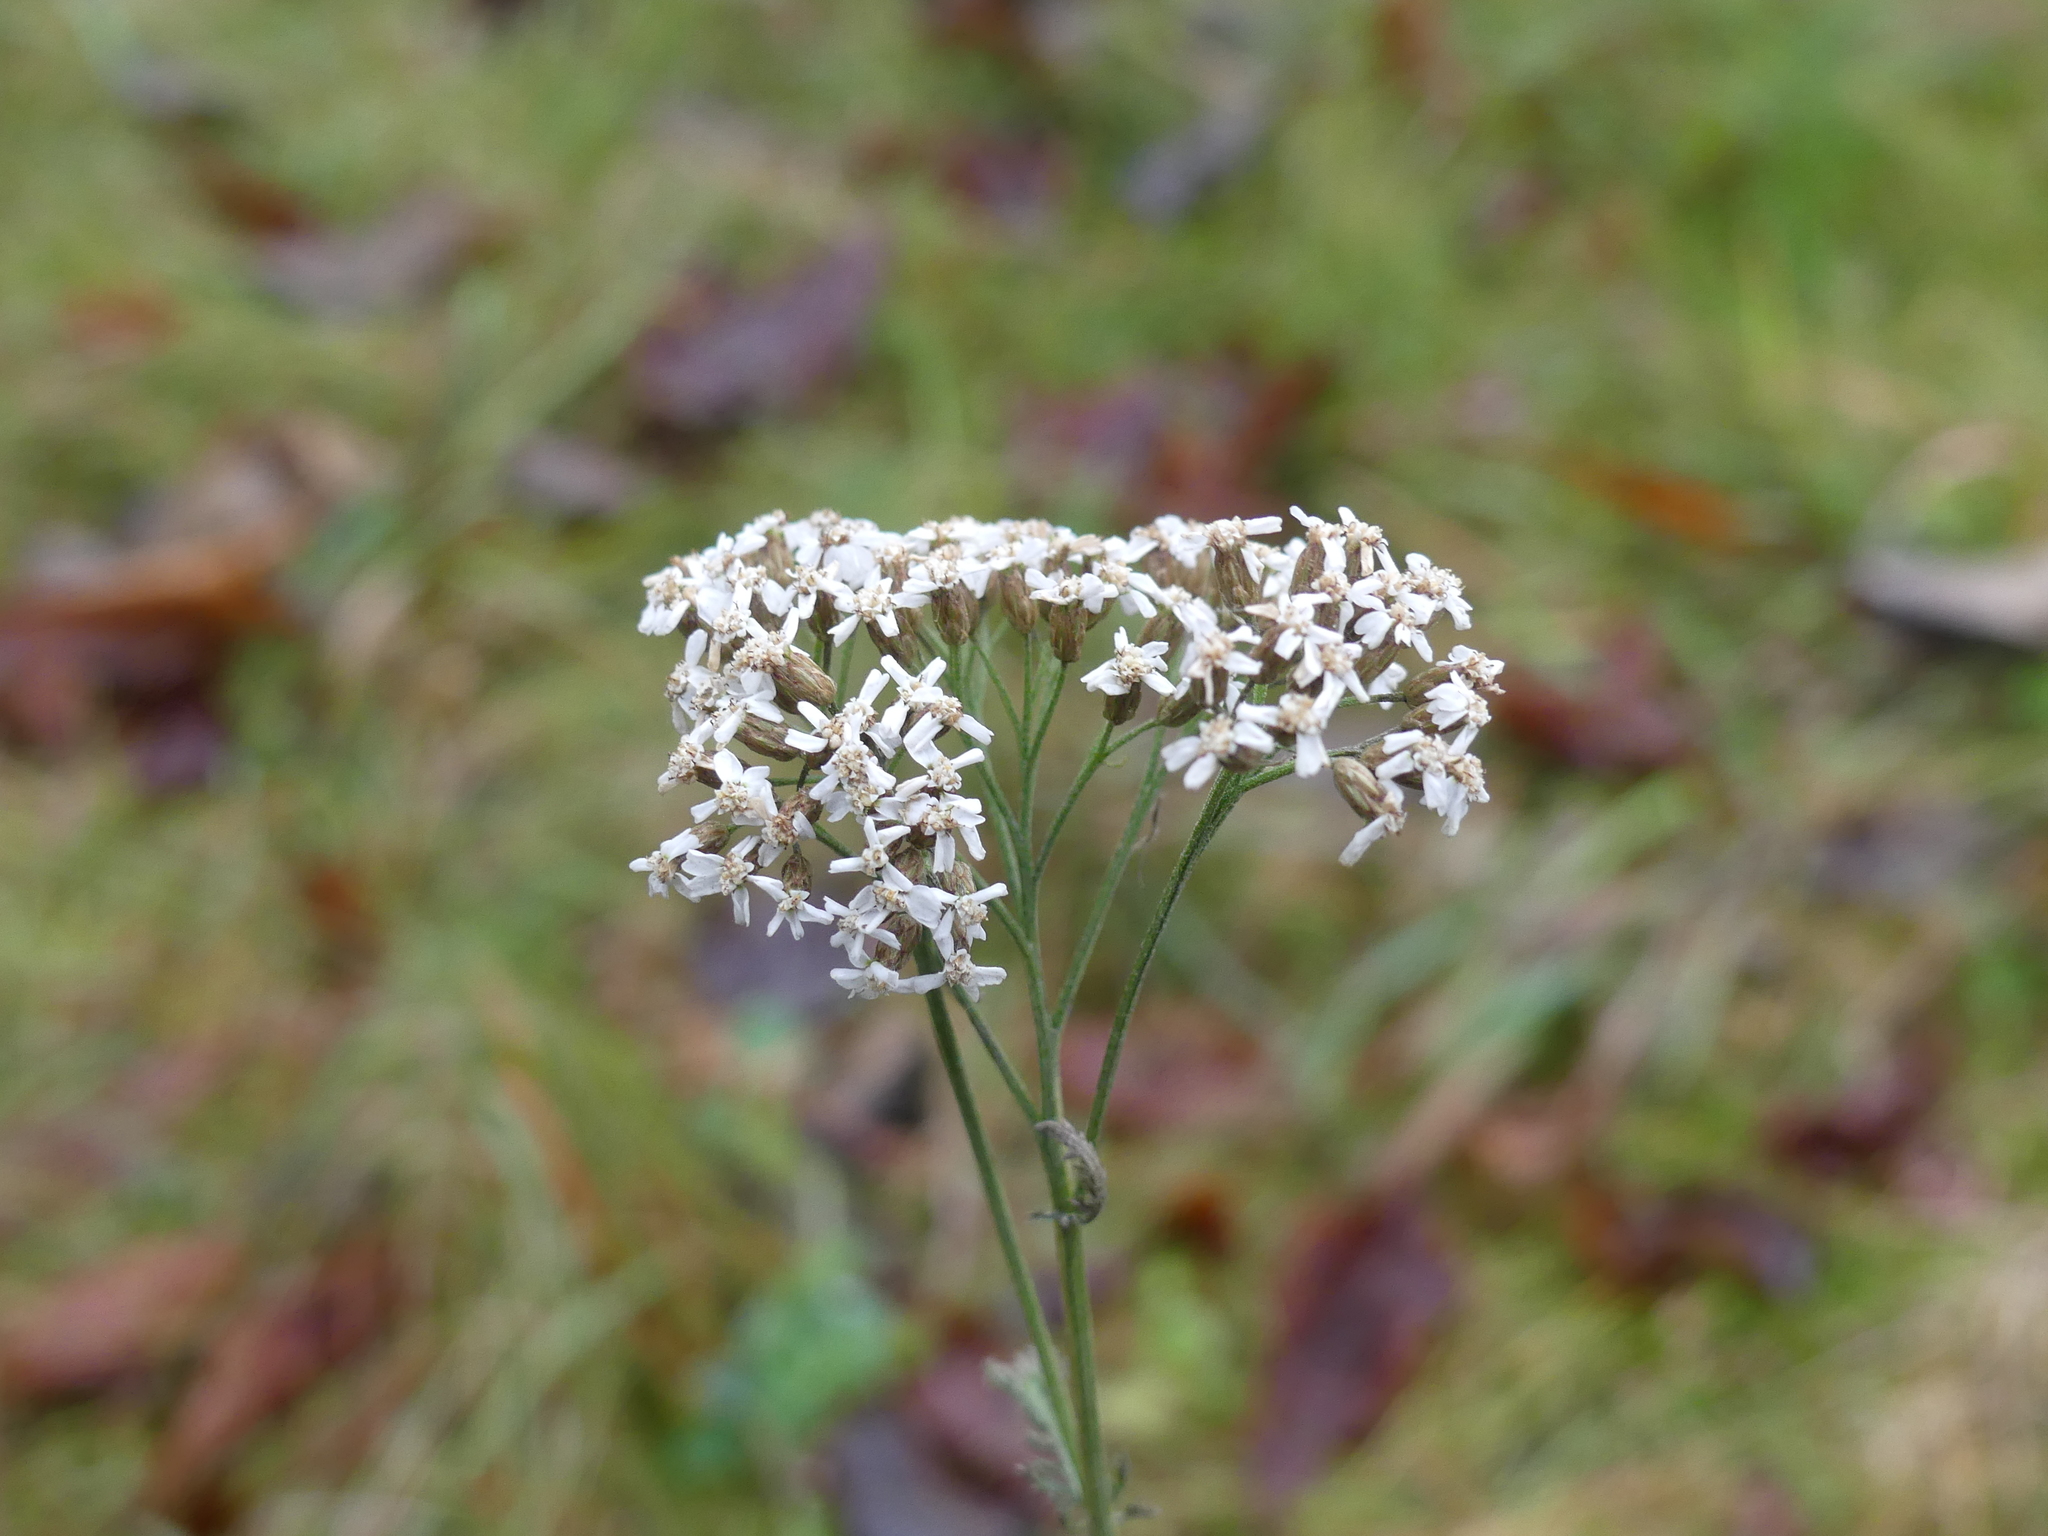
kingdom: Plantae
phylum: Tracheophyta
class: Magnoliopsida
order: Asterales
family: Asteraceae
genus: Achillea
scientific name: Achillea millefolium
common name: Yarrow
